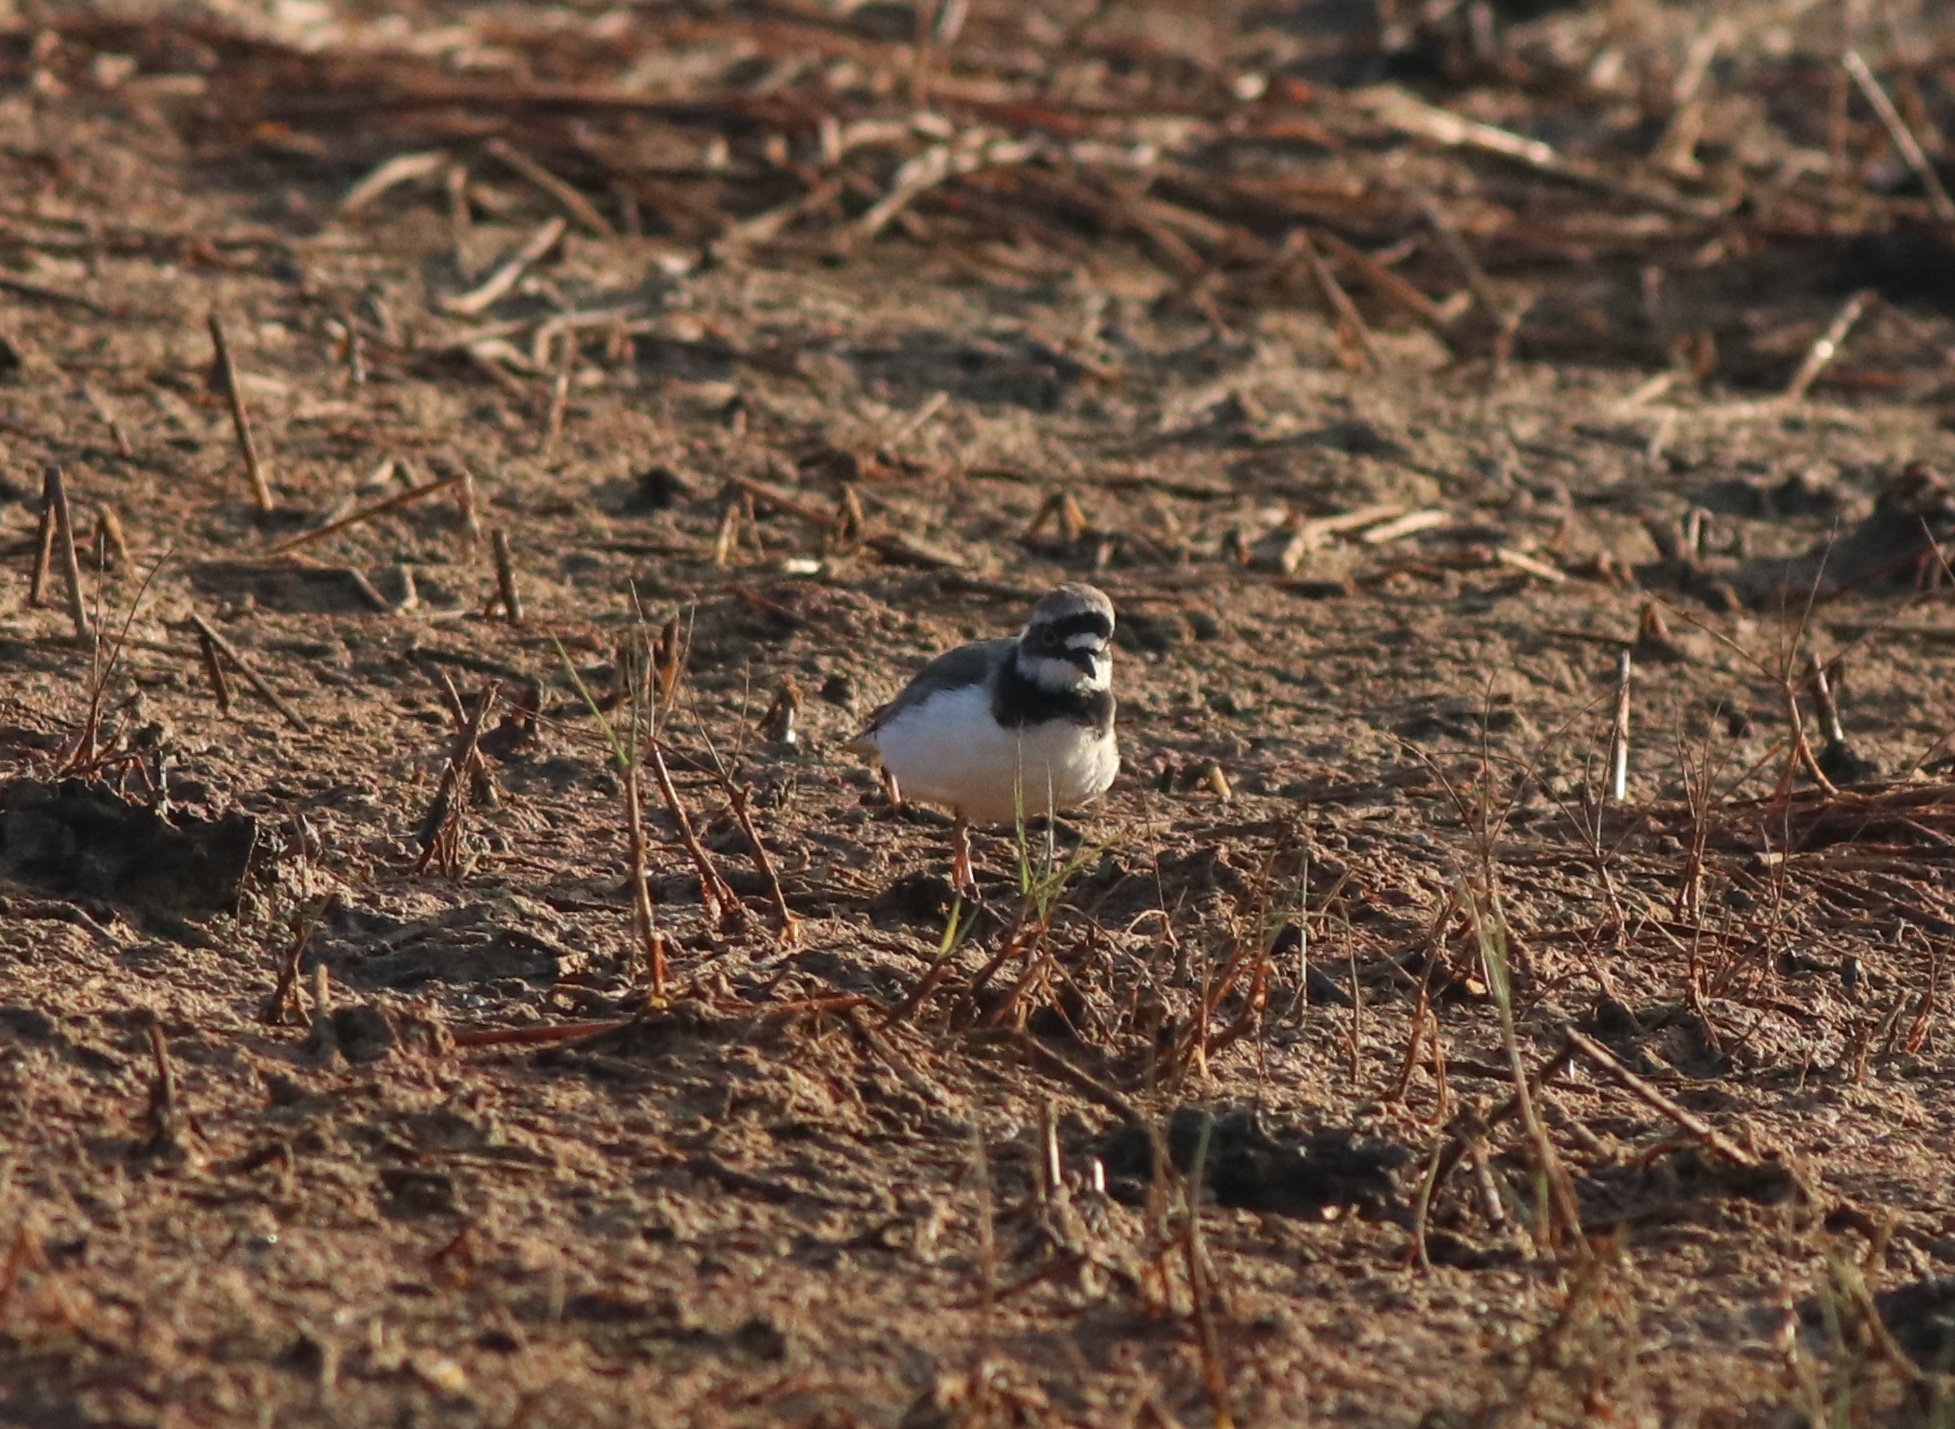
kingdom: Animalia
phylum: Chordata
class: Aves
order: Charadriiformes
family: Charadriidae
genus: Charadrius
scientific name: Charadrius dubius
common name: Little ringed plover
